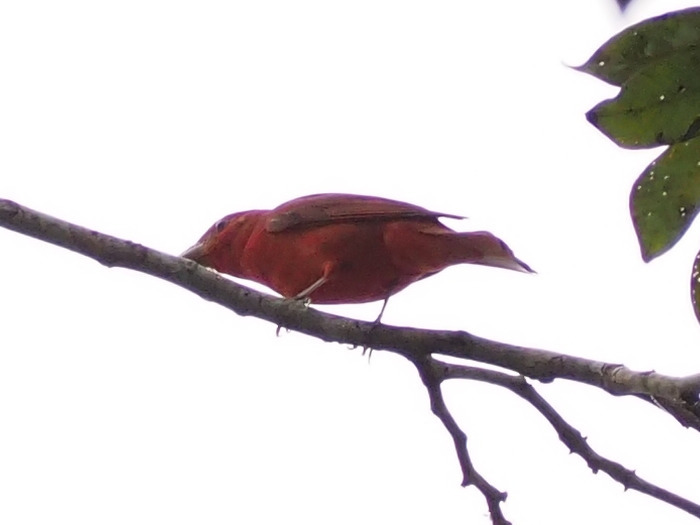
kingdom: Animalia
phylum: Chordata
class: Aves
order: Passeriformes
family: Cardinalidae
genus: Piranga
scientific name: Piranga rubra
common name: Summer tanager
